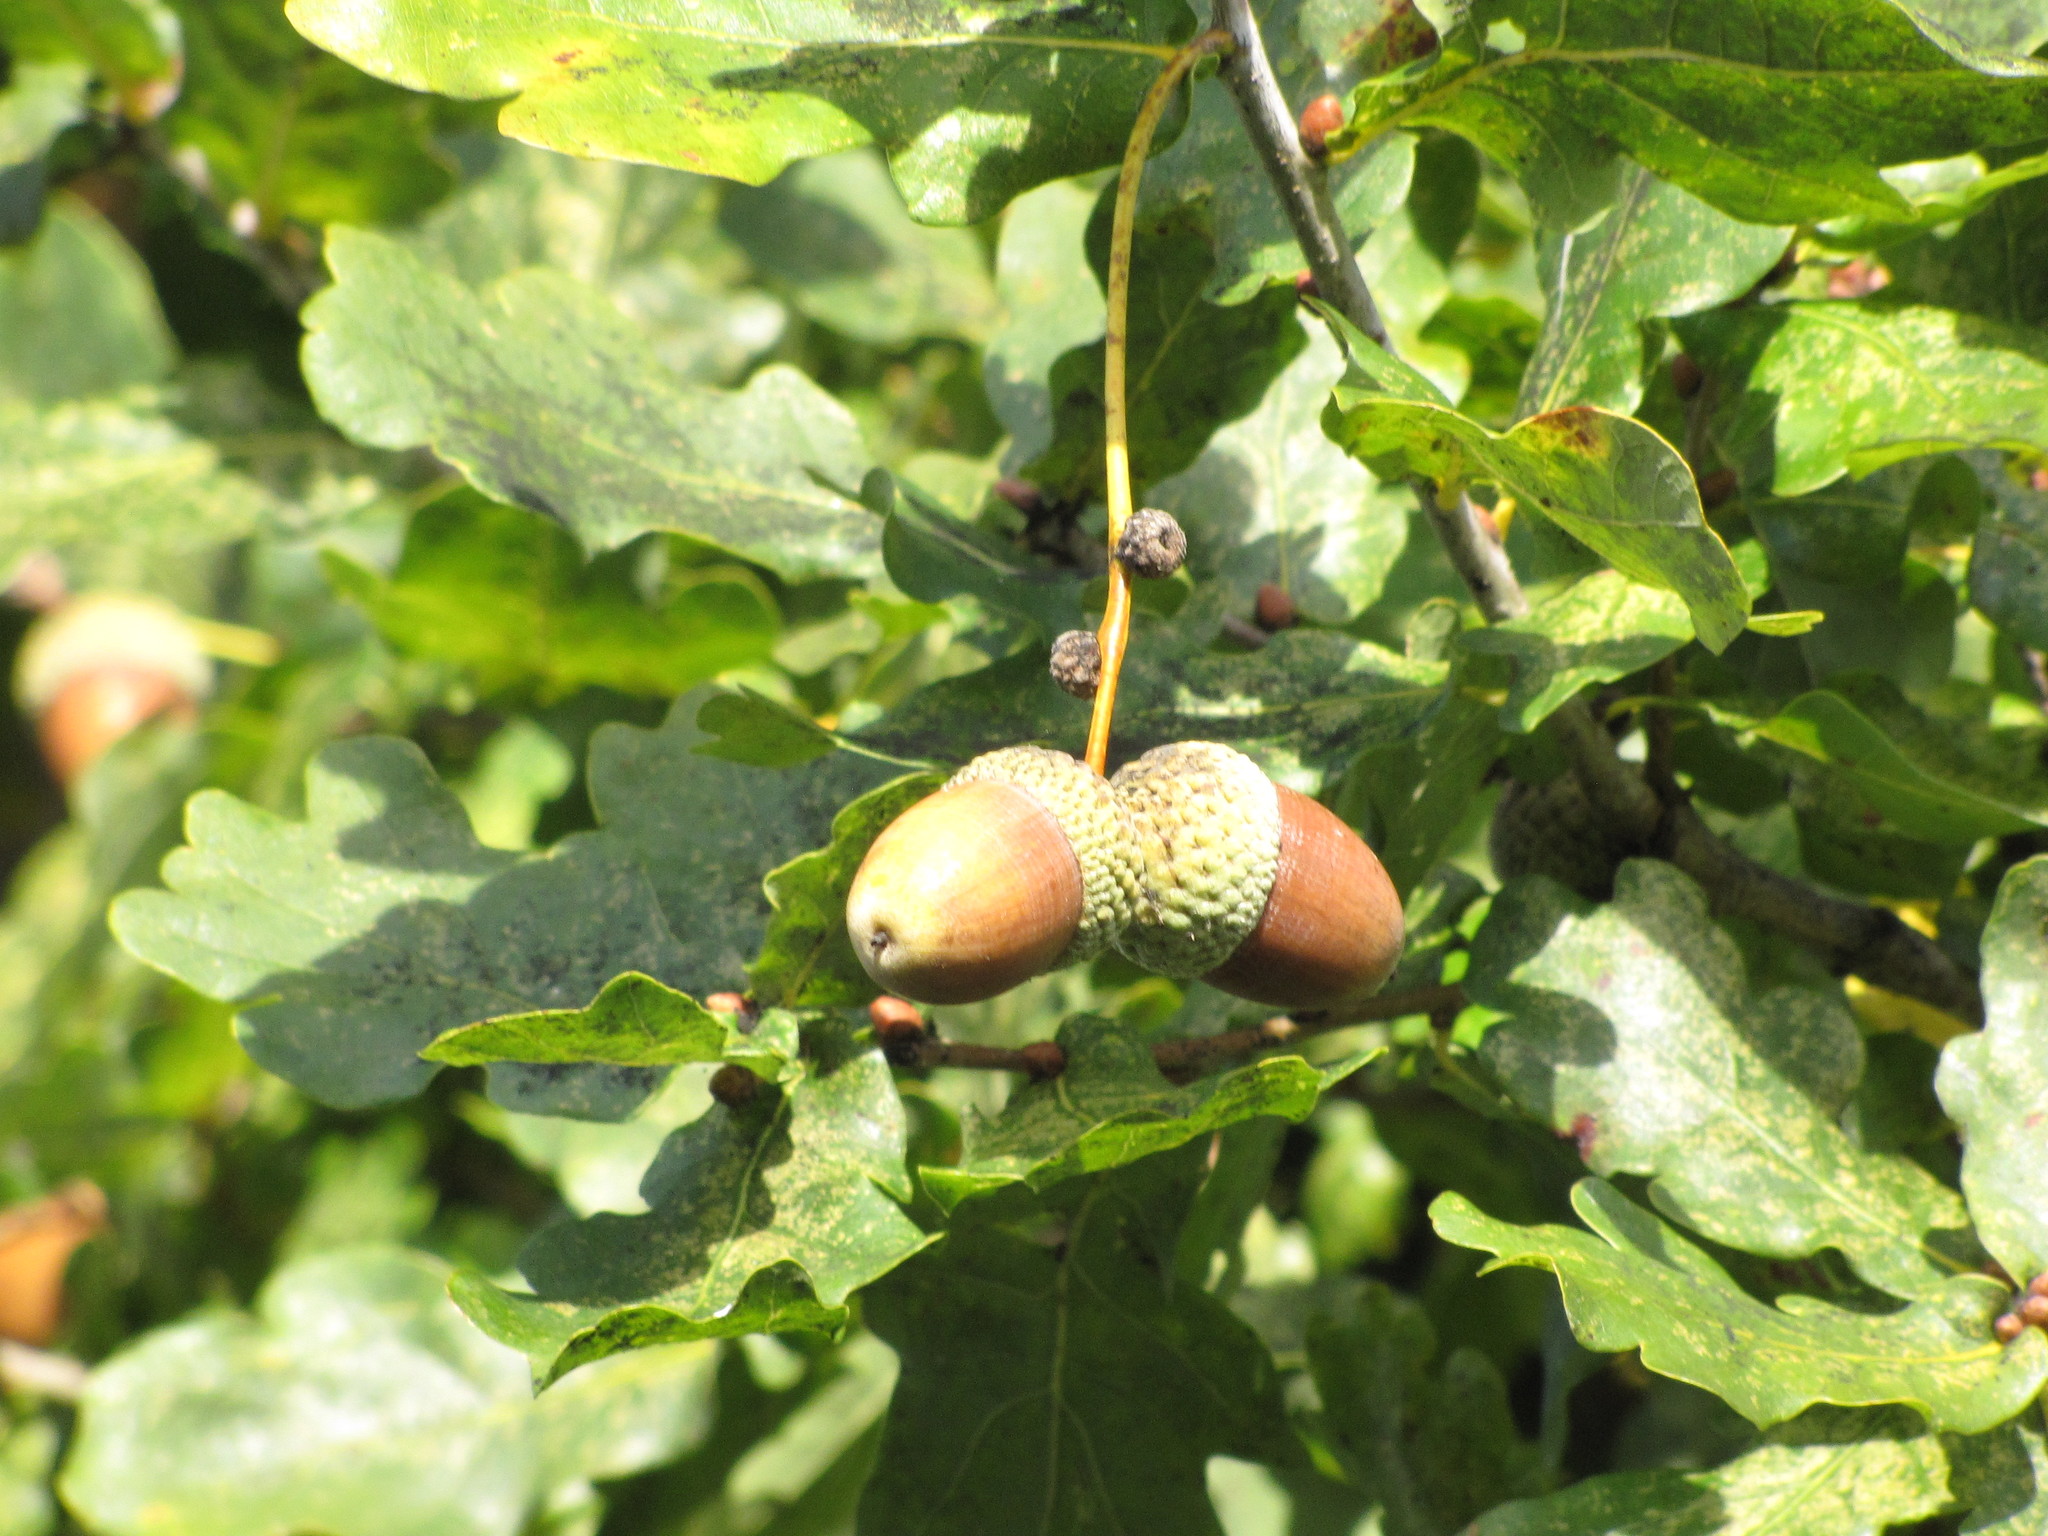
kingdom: Plantae
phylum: Tracheophyta
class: Magnoliopsida
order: Fagales
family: Fagaceae
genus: Quercus
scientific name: Quercus robur
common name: Pedunculate oak
